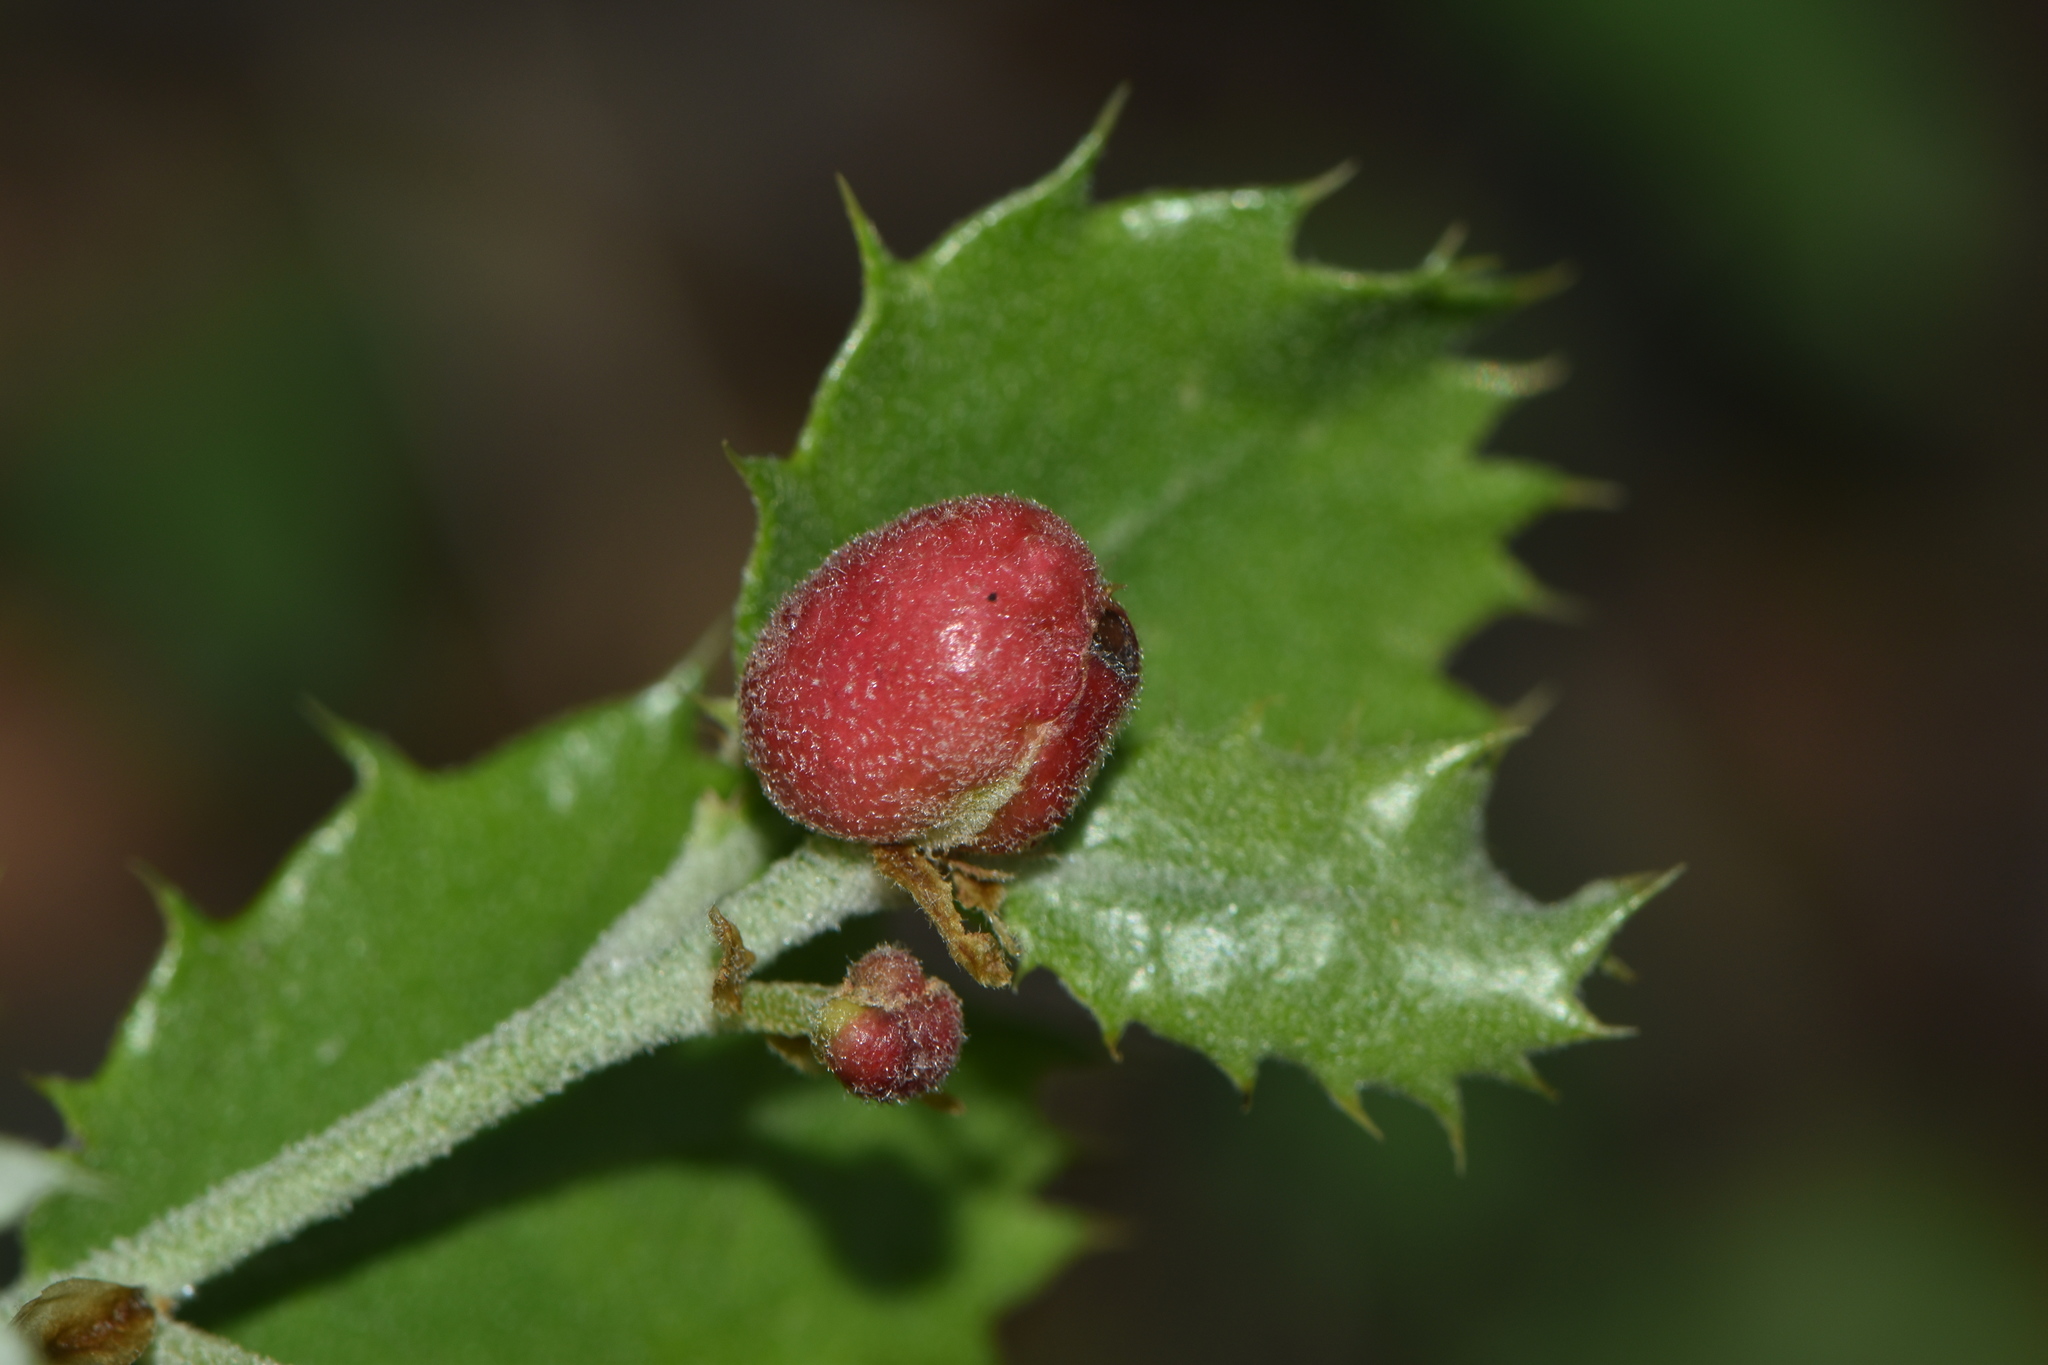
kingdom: Animalia
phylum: Arthropoda
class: Insecta
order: Hymenoptera
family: Cynipidae
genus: Plagiotrochus
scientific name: Plagiotrochus quercusilicis
